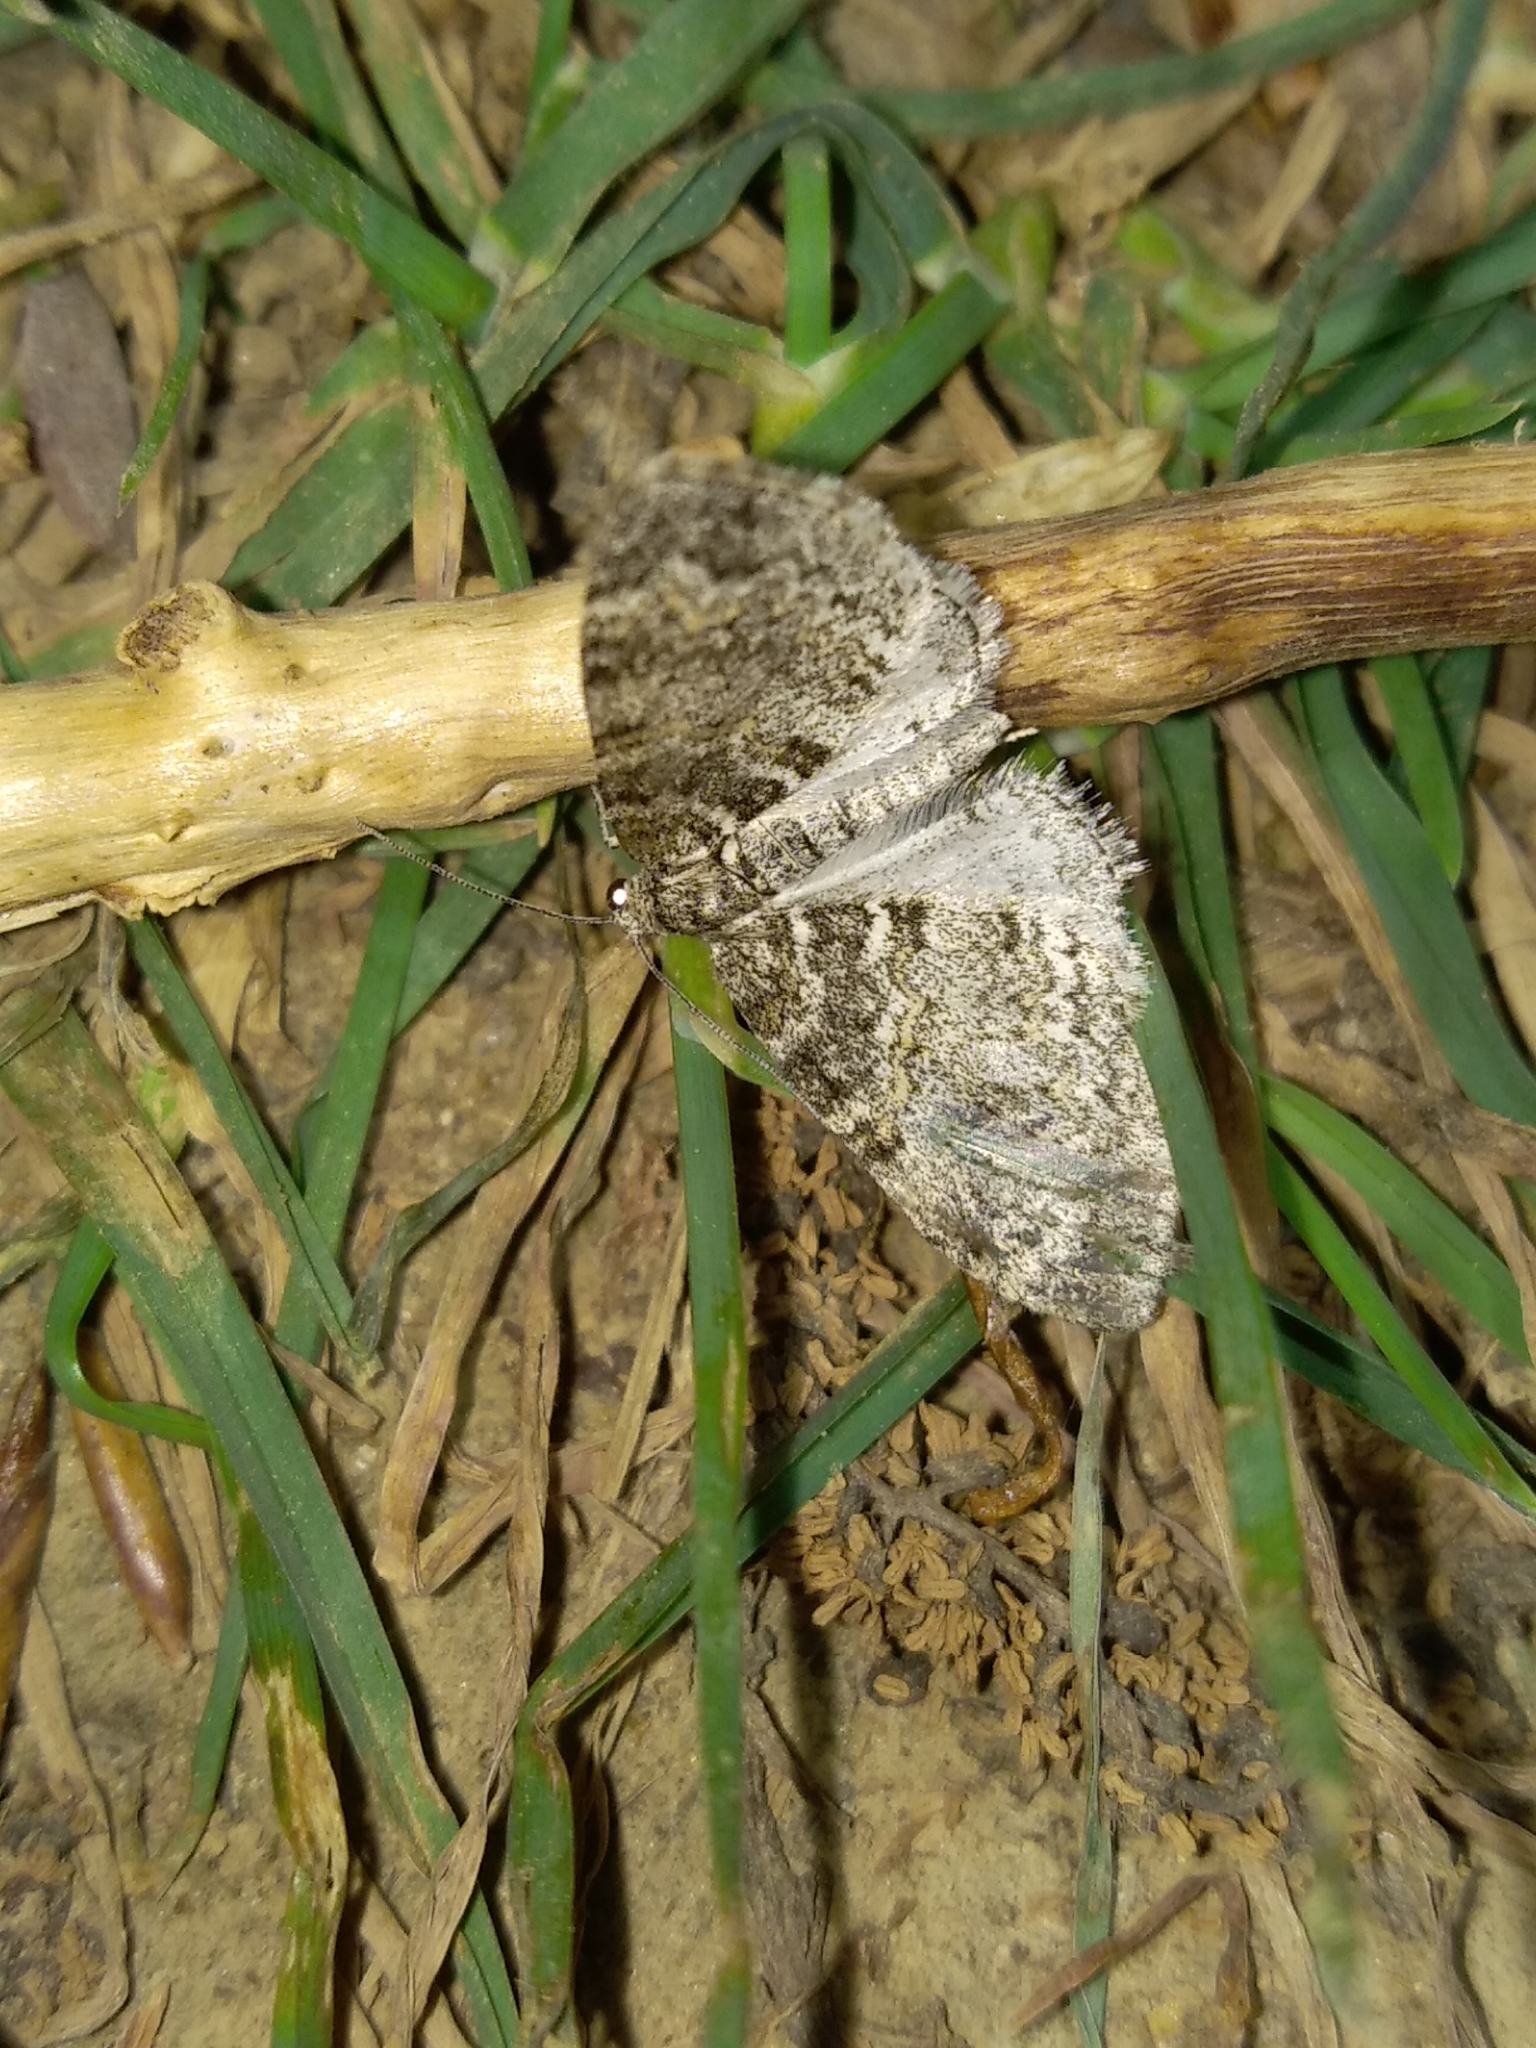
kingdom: Animalia
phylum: Arthropoda
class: Insecta
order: Lepidoptera
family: Geometridae
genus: Lobophora
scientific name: Lobophora halterata
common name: Seraphim
